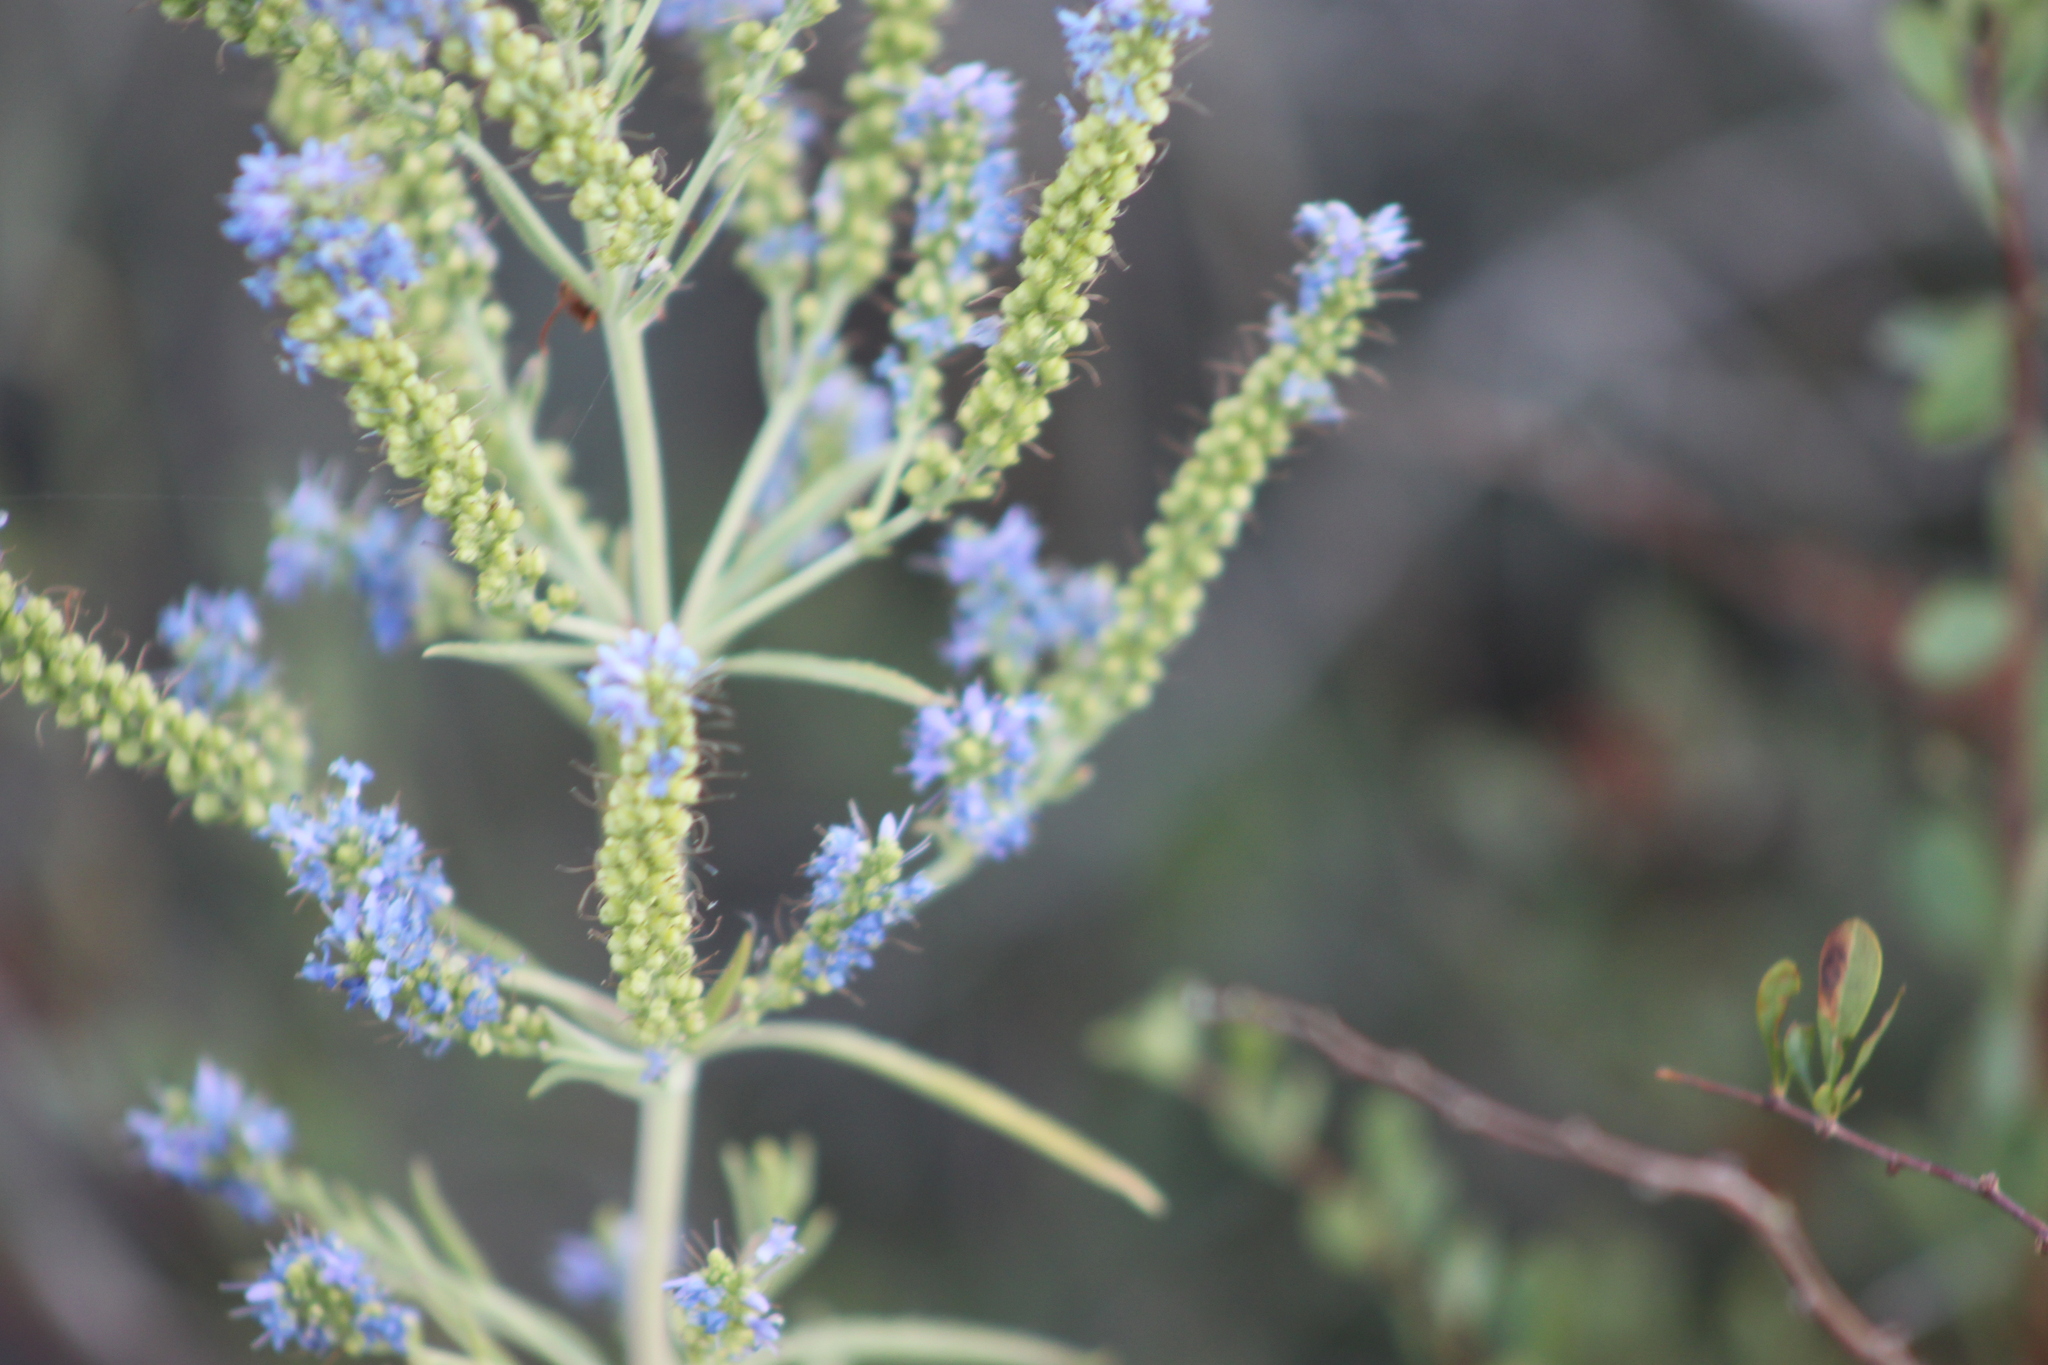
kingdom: Plantae
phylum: Tracheophyta
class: Magnoliopsida
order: Lamiales
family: Plantaginaceae
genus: Veronica
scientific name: Veronica spuria
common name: Bastard speedwell
